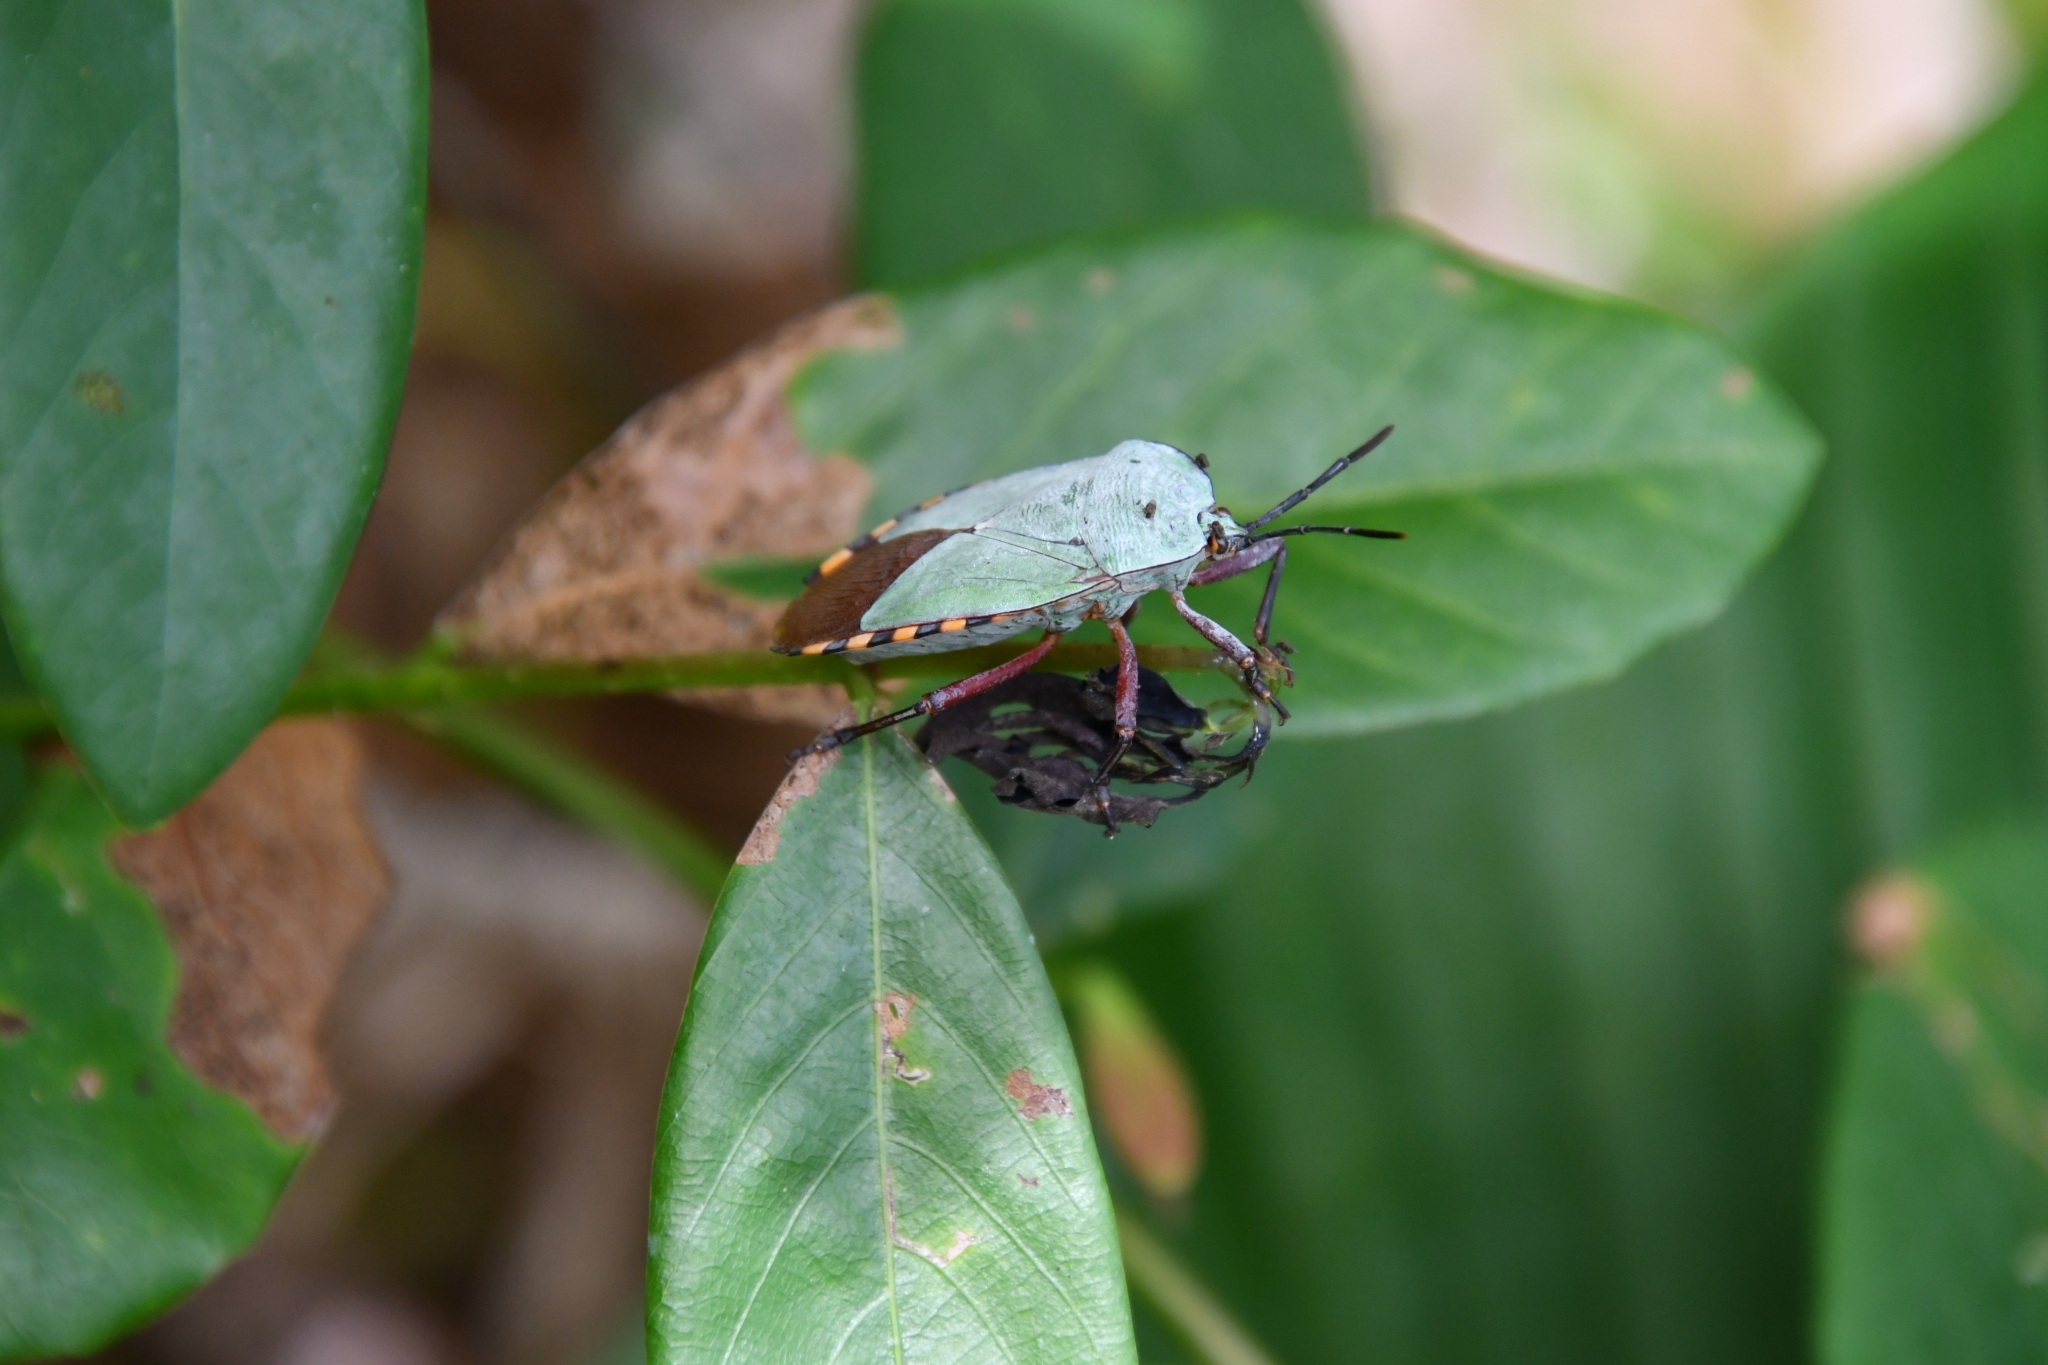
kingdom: Animalia
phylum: Arthropoda
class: Insecta
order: Hemiptera
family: Tessaratomidae
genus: Pycanum
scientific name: Pycanum alternatum
